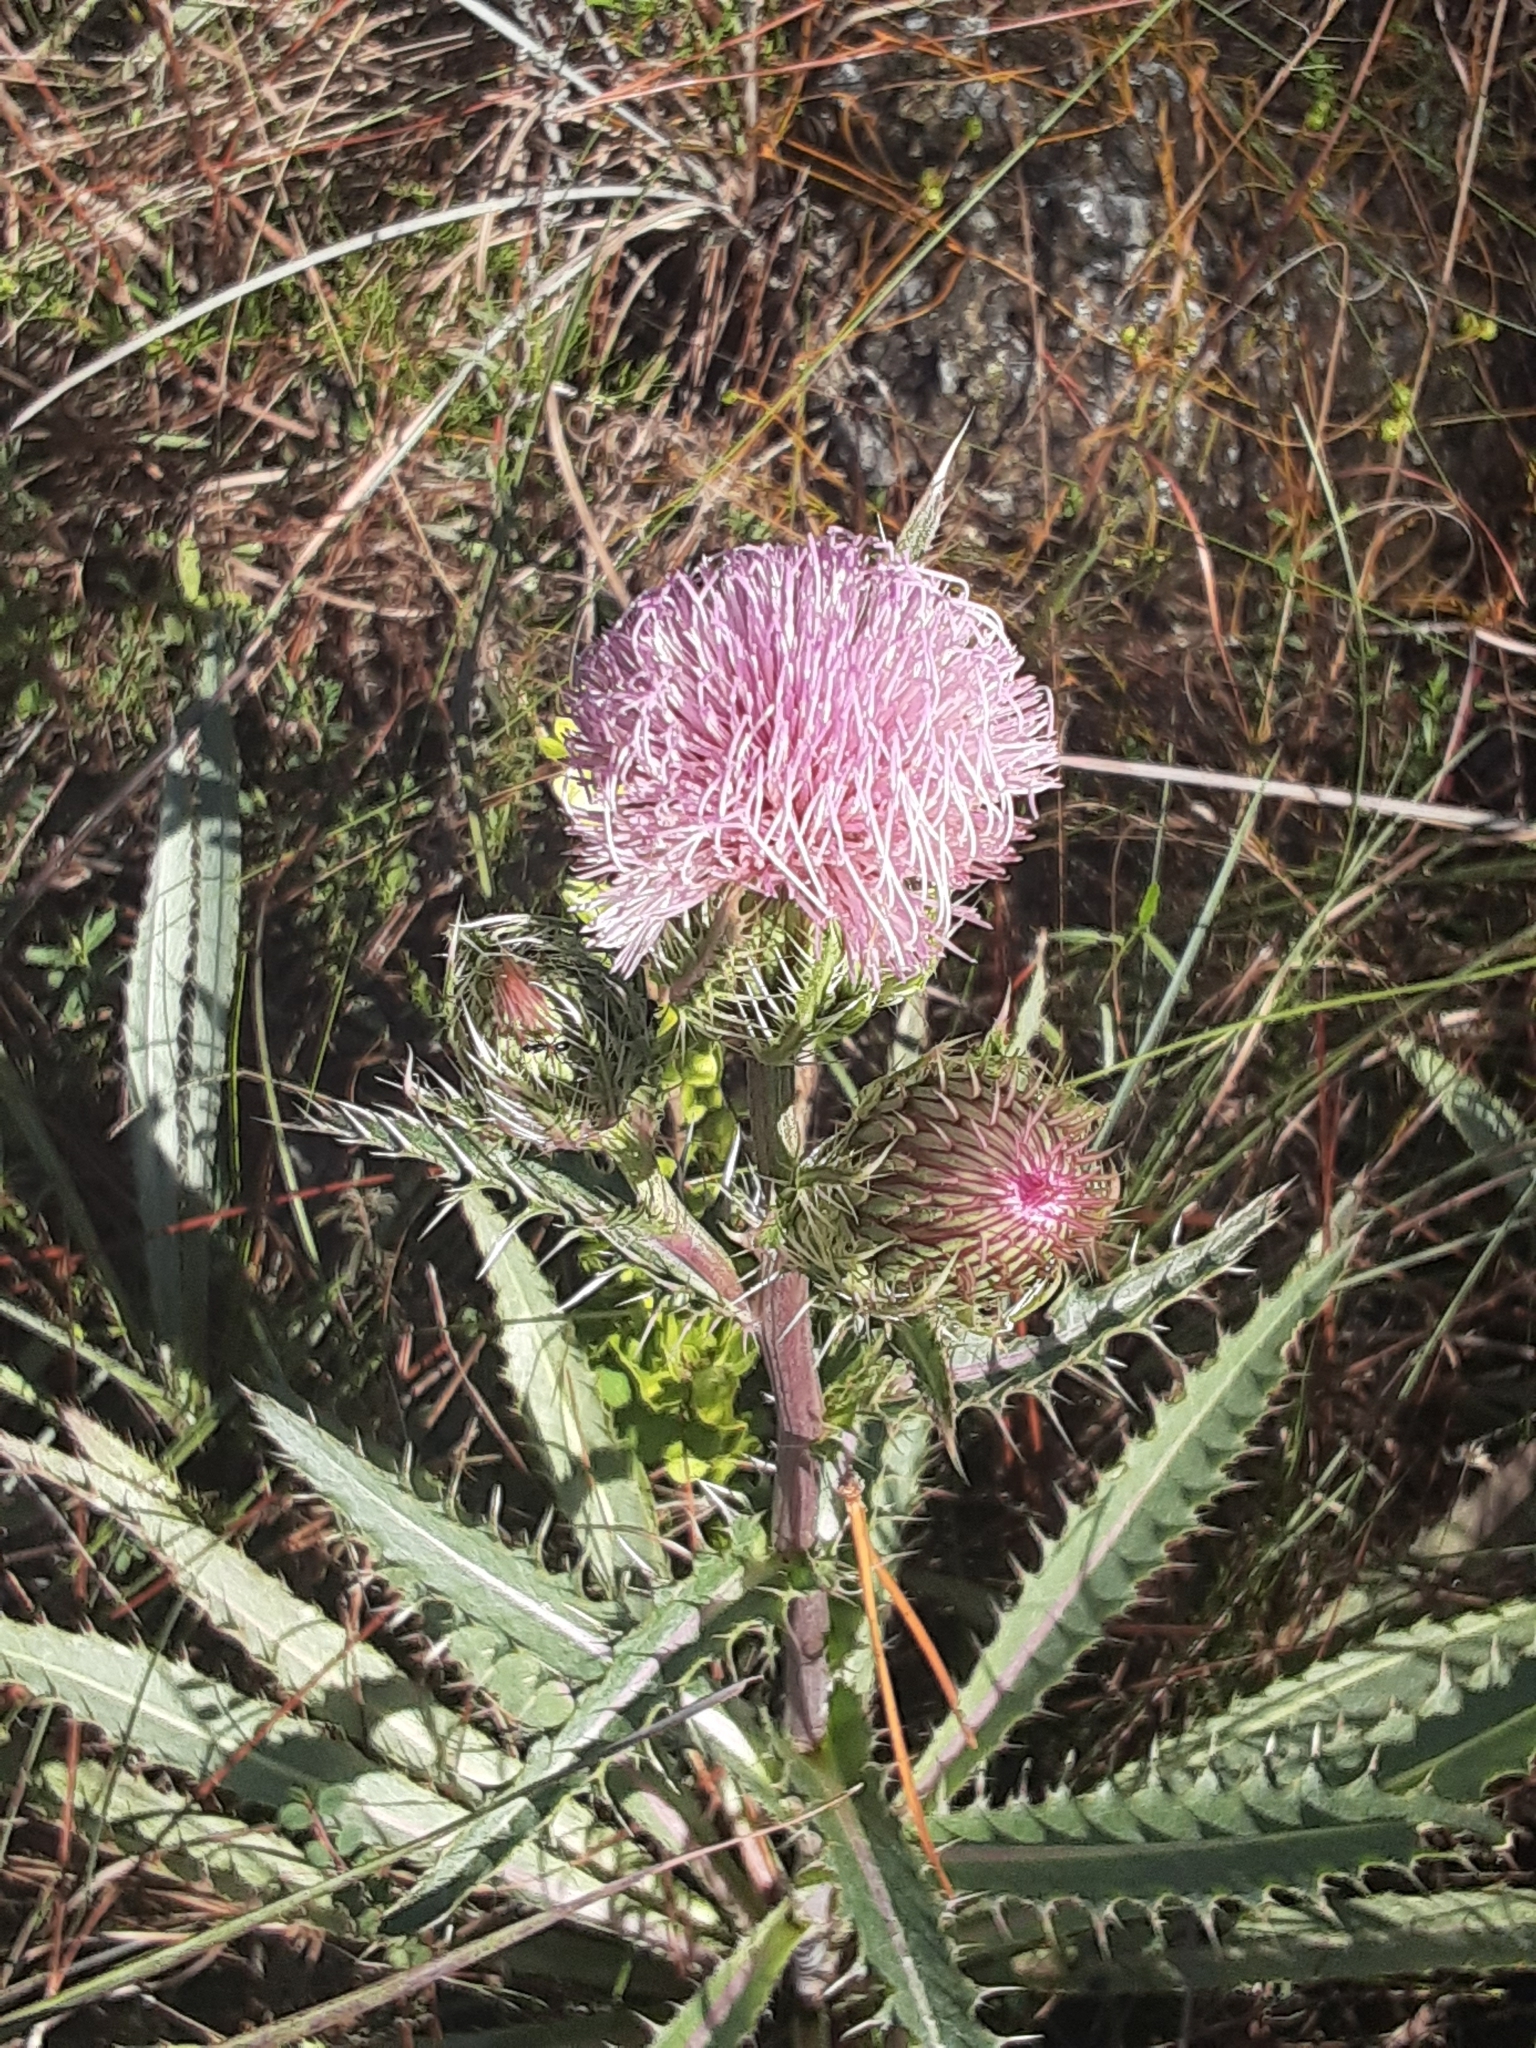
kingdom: Plantae
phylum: Tracheophyta
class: Magnoliopsida
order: Asterales
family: Asteraceae
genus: Cirsium
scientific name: Cirsium horridulum
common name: Bristly thistle
